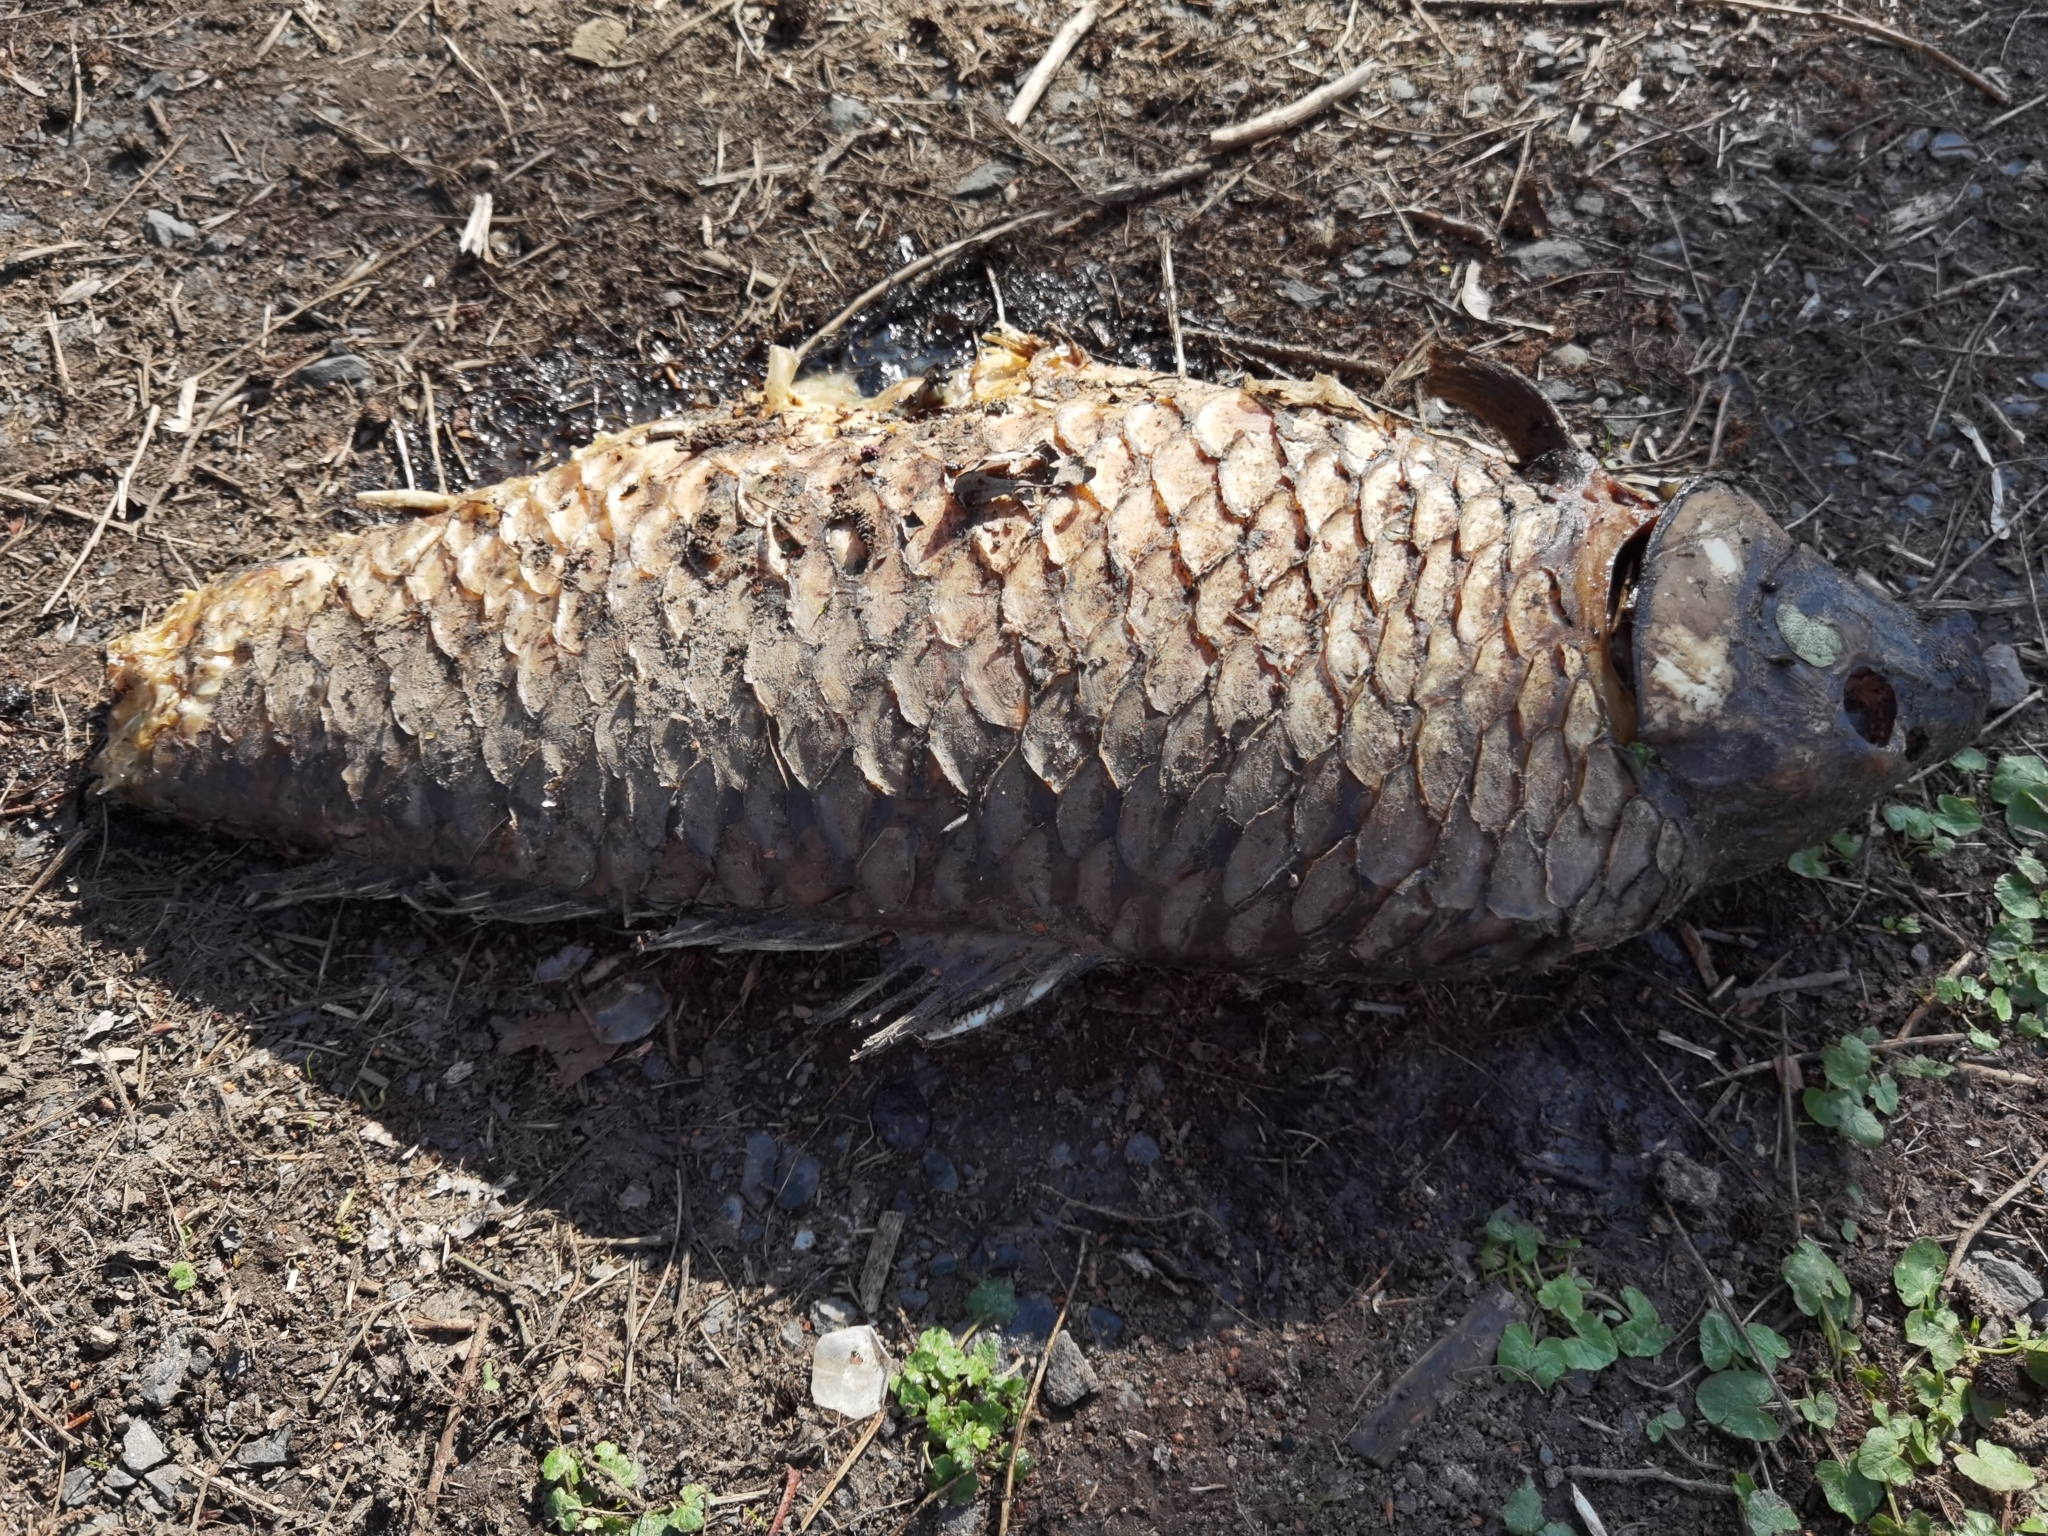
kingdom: Animalia
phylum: Chordata
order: Cypriniformes
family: Cyprinidae
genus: Cyprinus
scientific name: Cyprinus carpio
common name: Common carp
